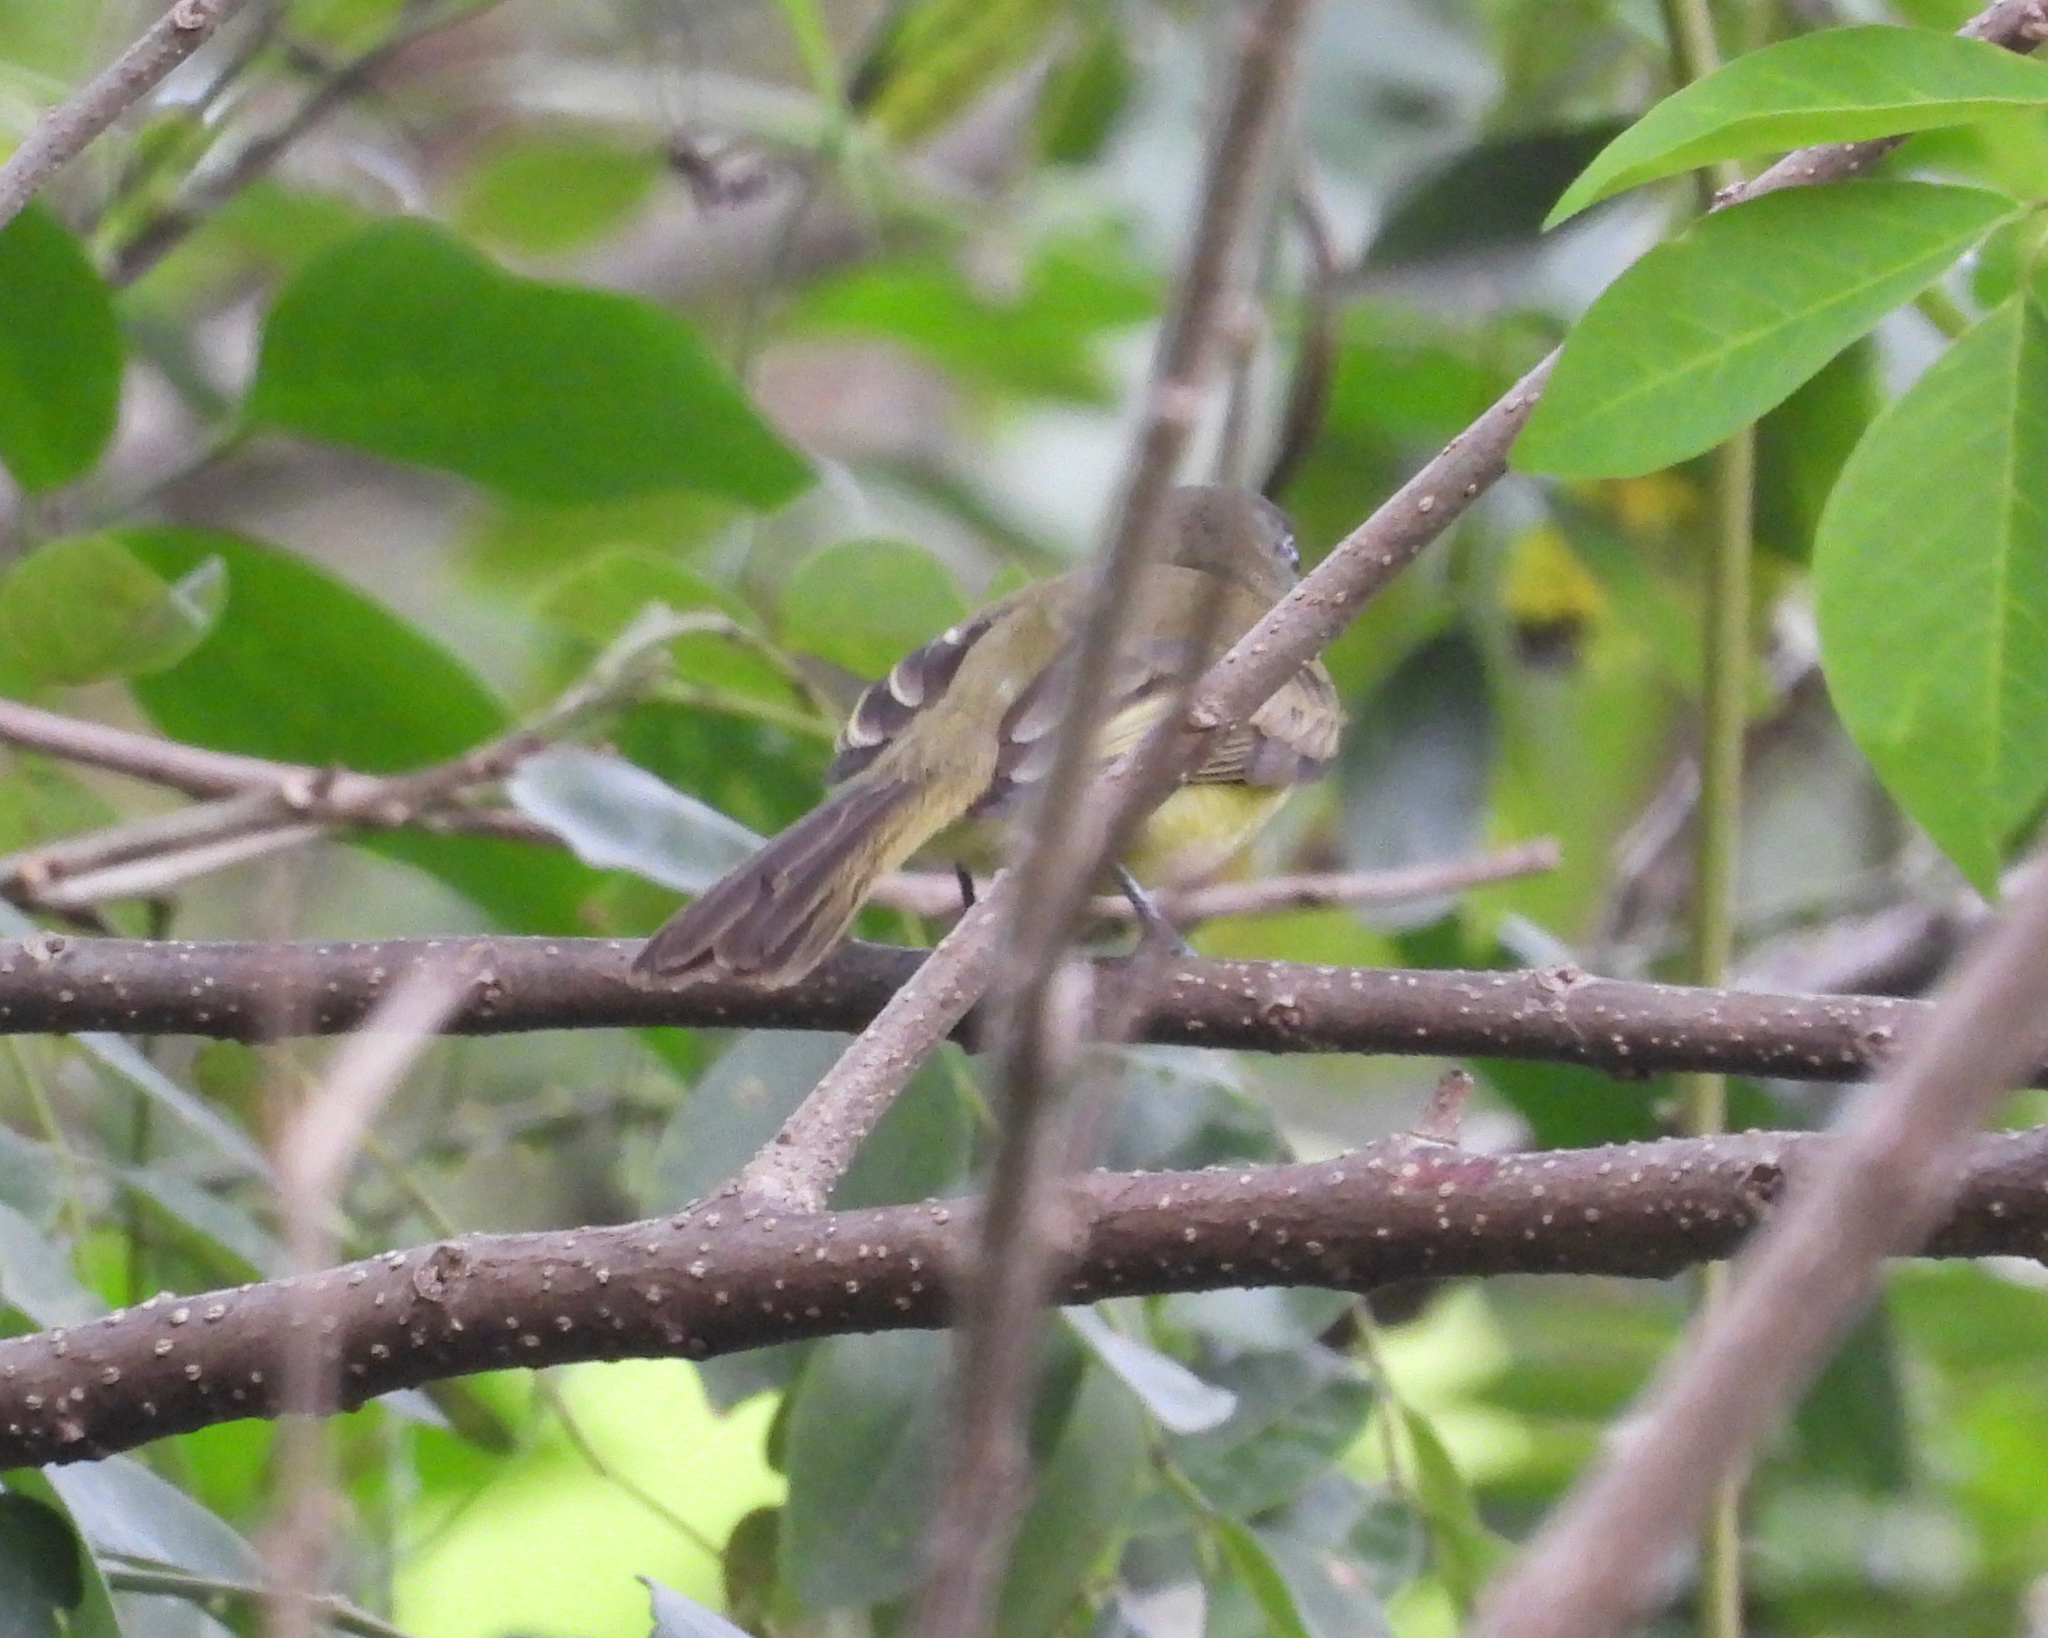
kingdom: Animalia
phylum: Chordata
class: Aves
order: Passeriformes
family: Tyrannidae
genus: Myiopagis
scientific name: Myiopagis viridicata
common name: Greenish elaenia
